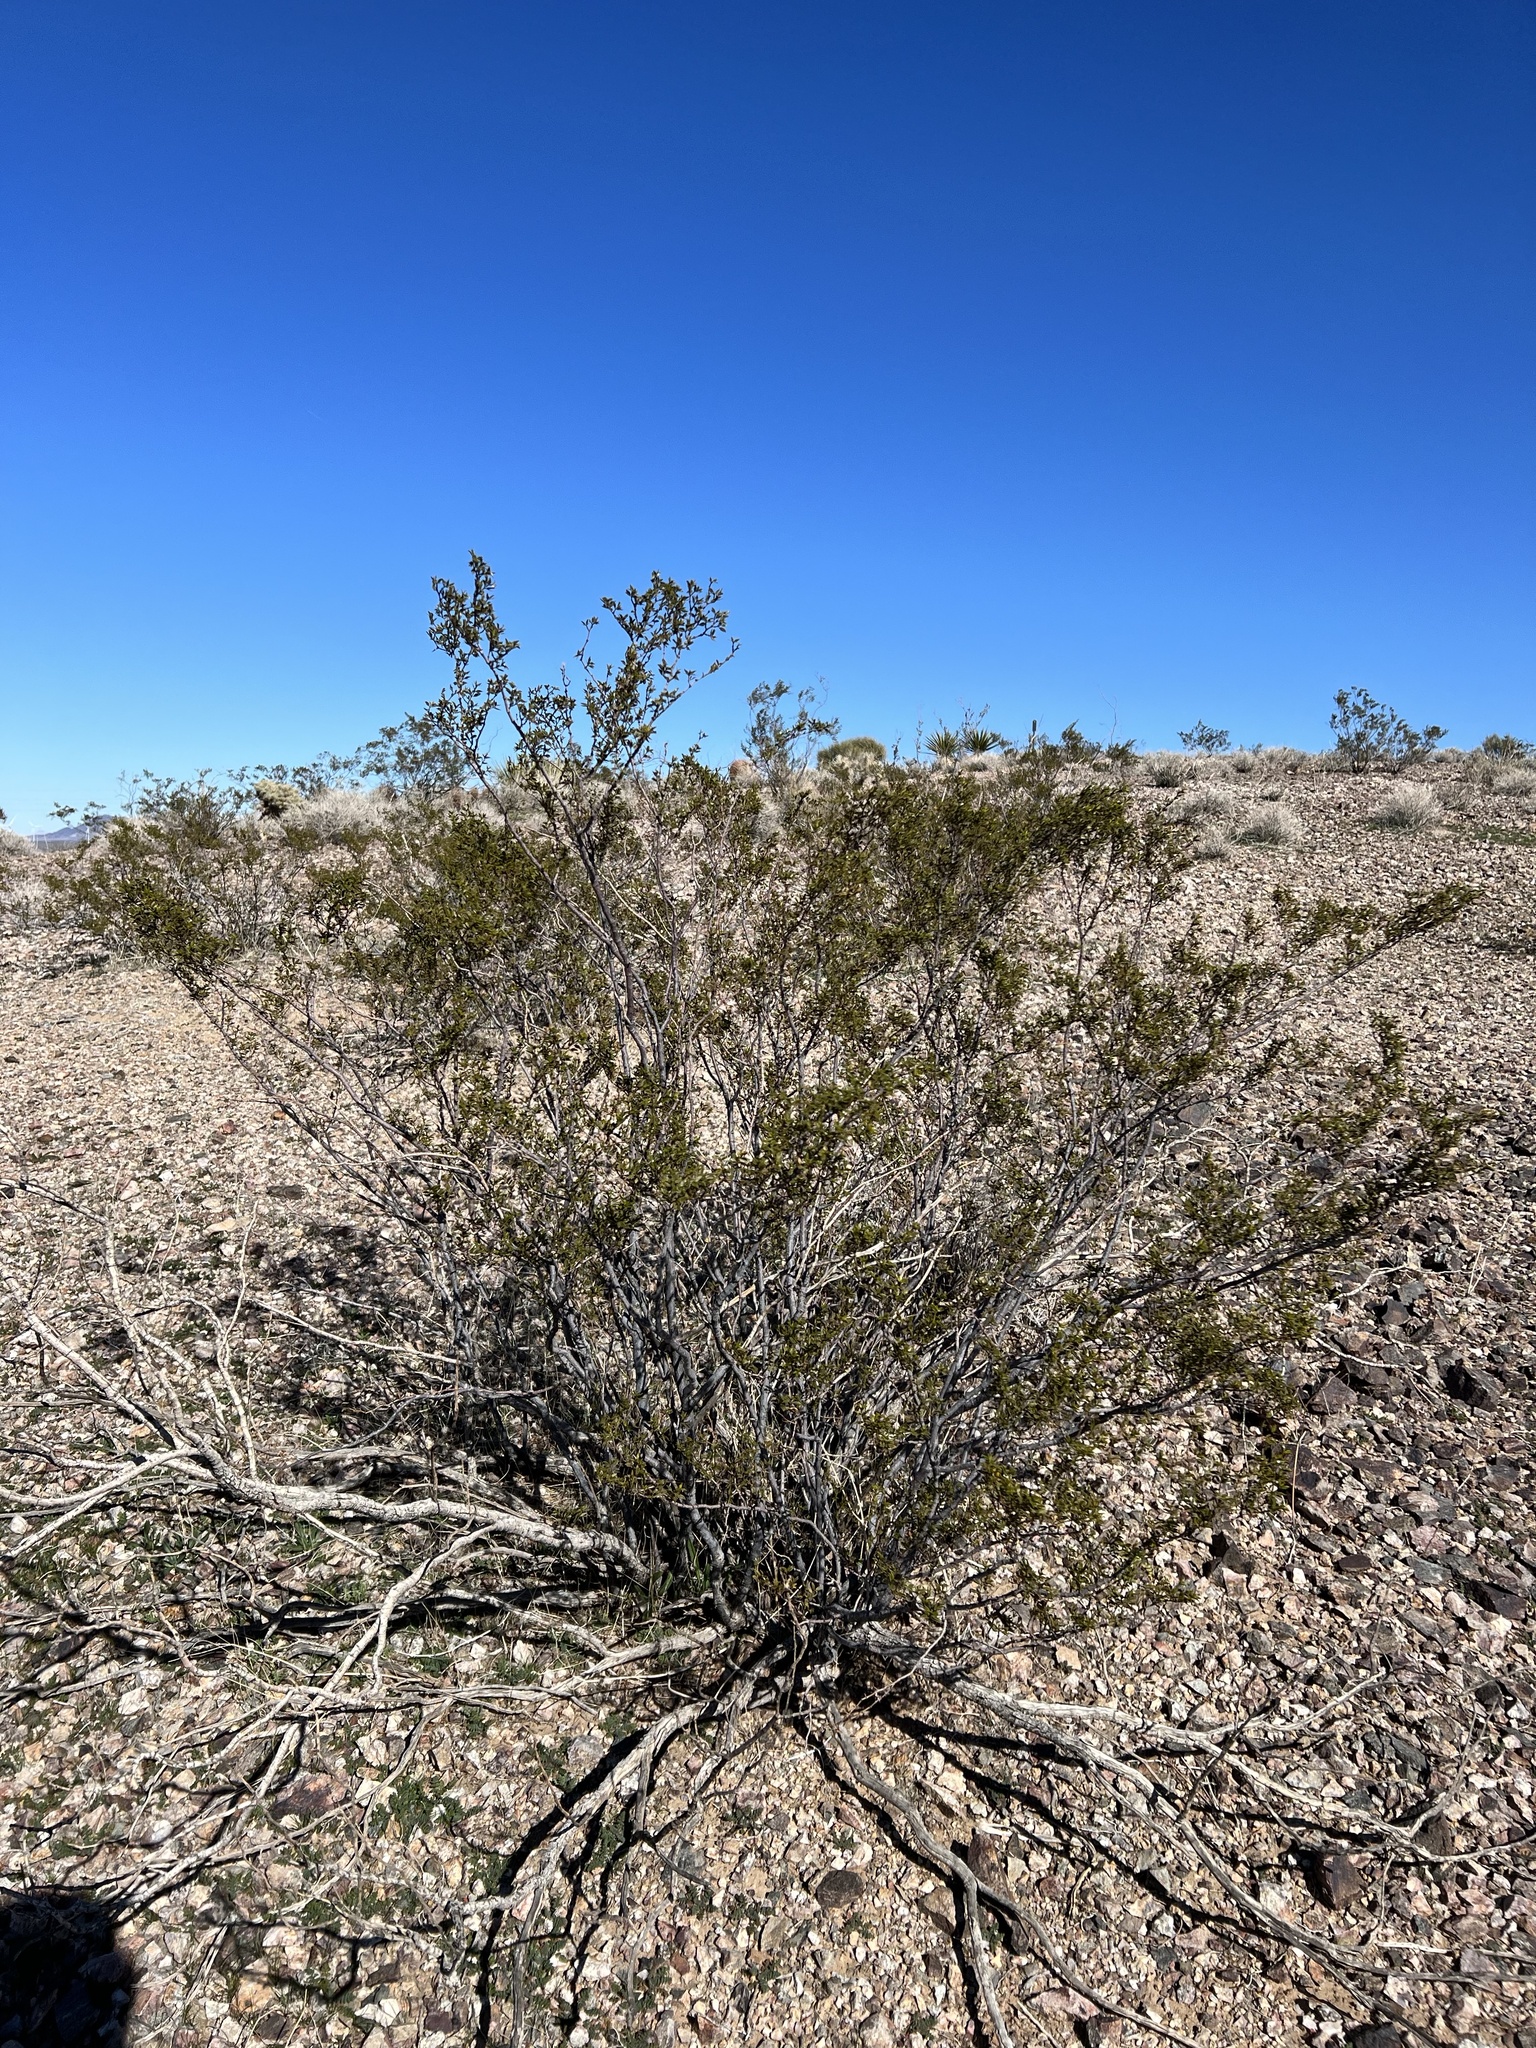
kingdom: Plantae
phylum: Tracheophyta
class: Magnoliopsida
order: Zygophyllales
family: Zygophyllaceae
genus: Larrea
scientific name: Larrea tridentata
